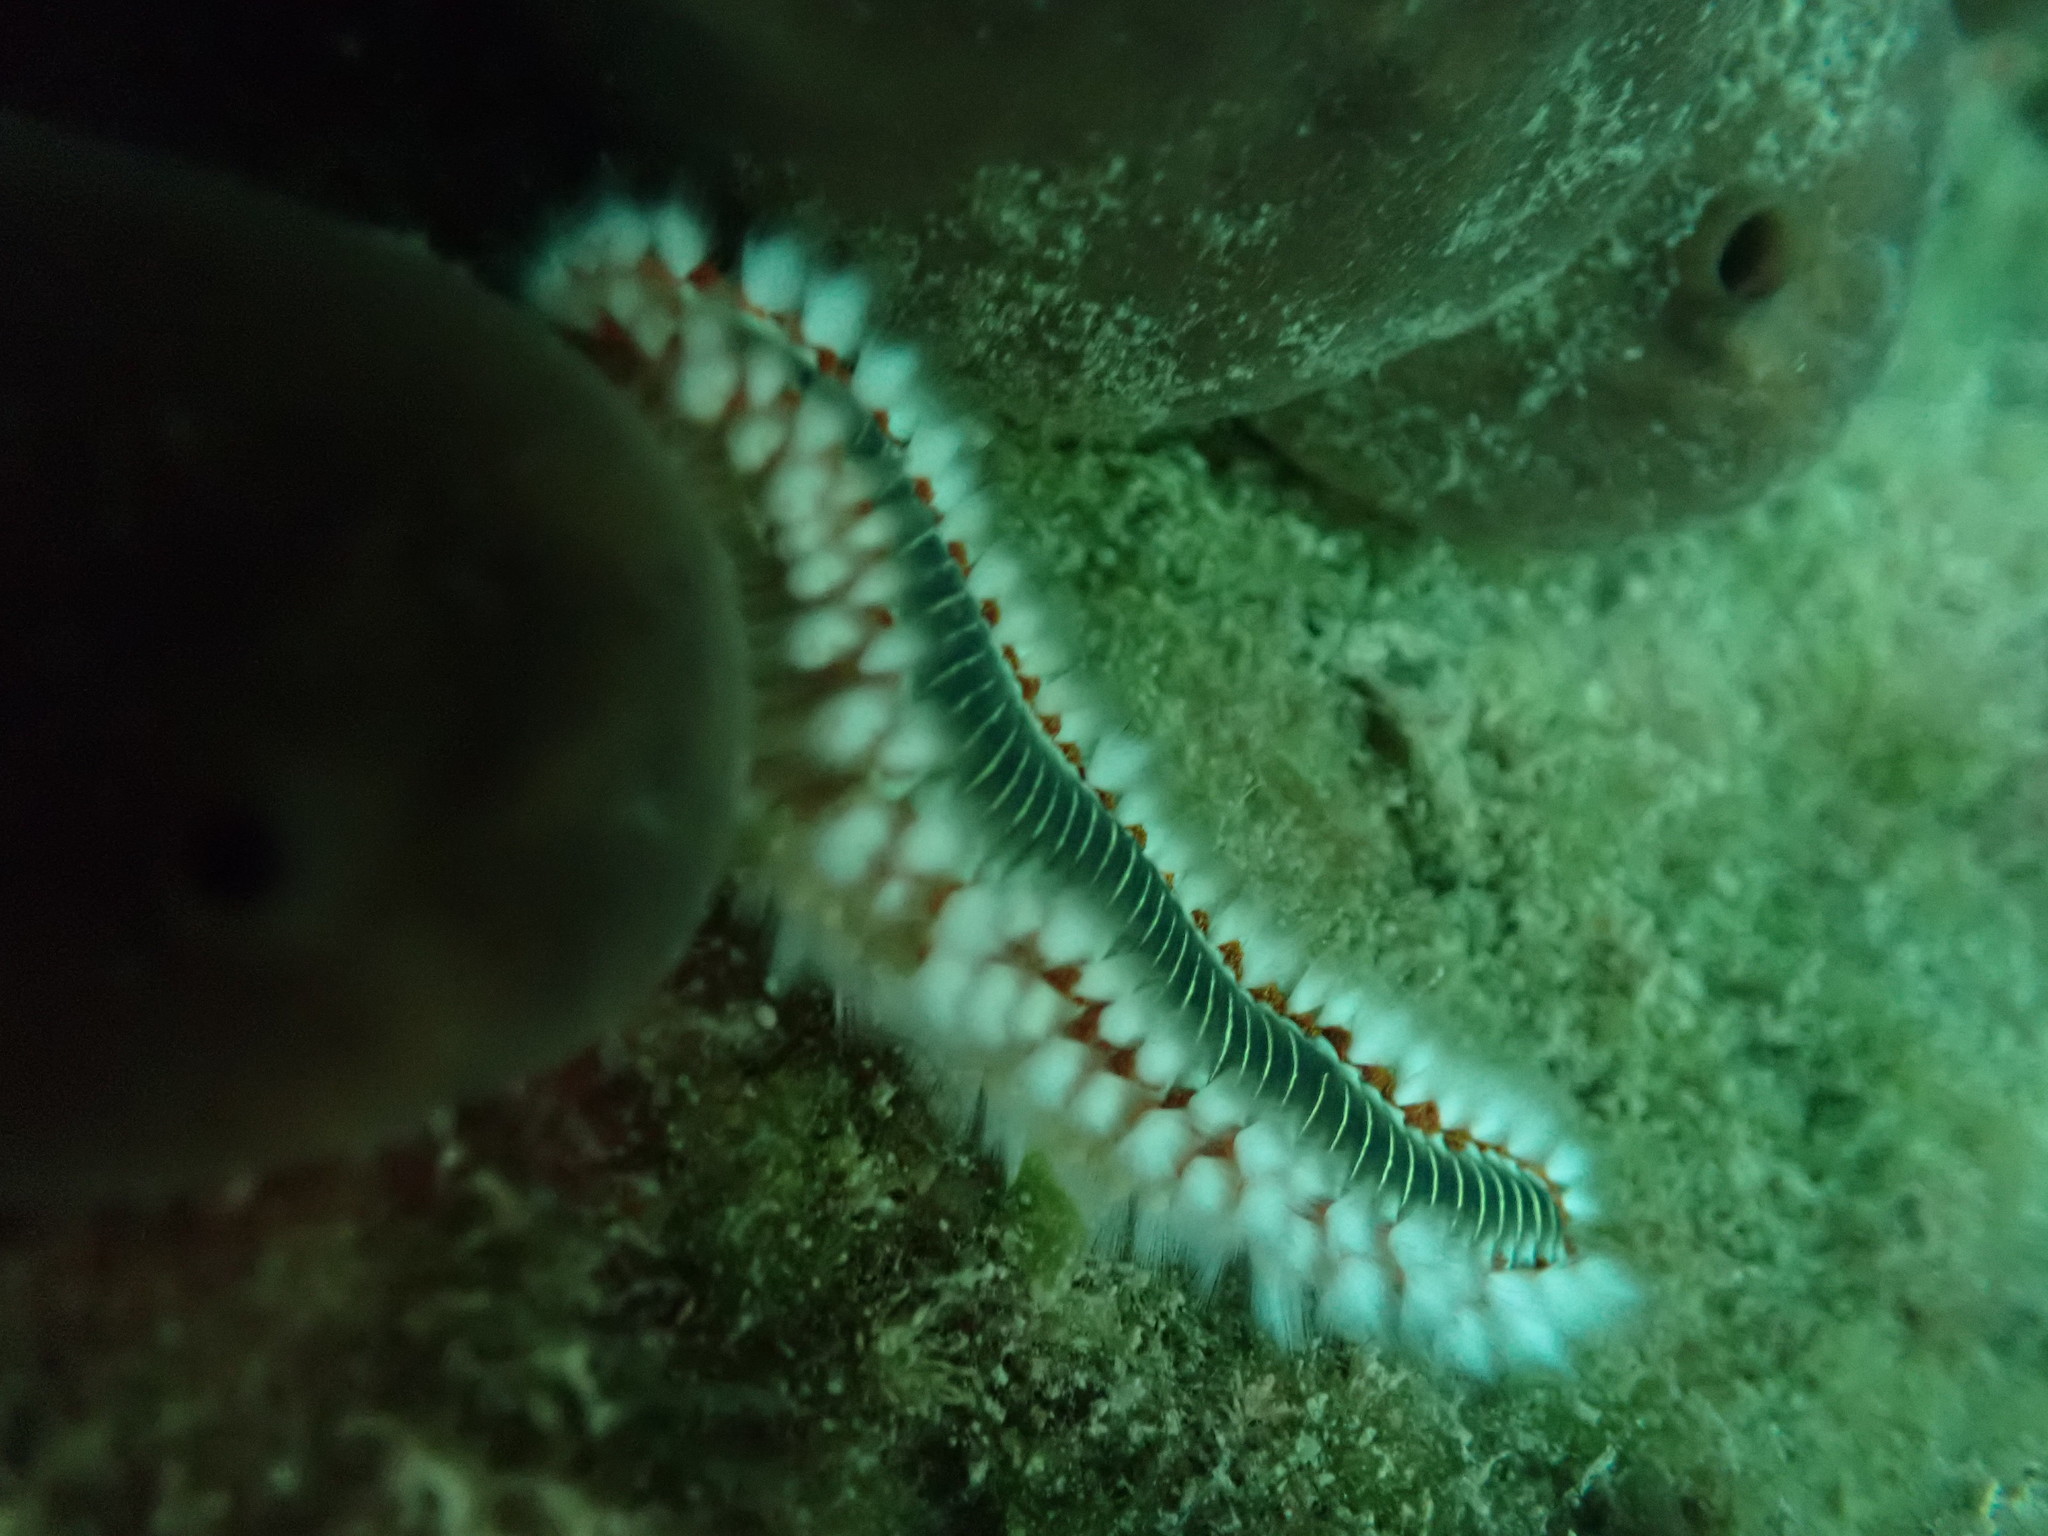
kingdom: Animalia
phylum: Annelida
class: Polychaeta
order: Amphinomida
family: Amphinomidae
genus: Hermodice
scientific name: Hermodice carunculata
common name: Bearded fireworm
